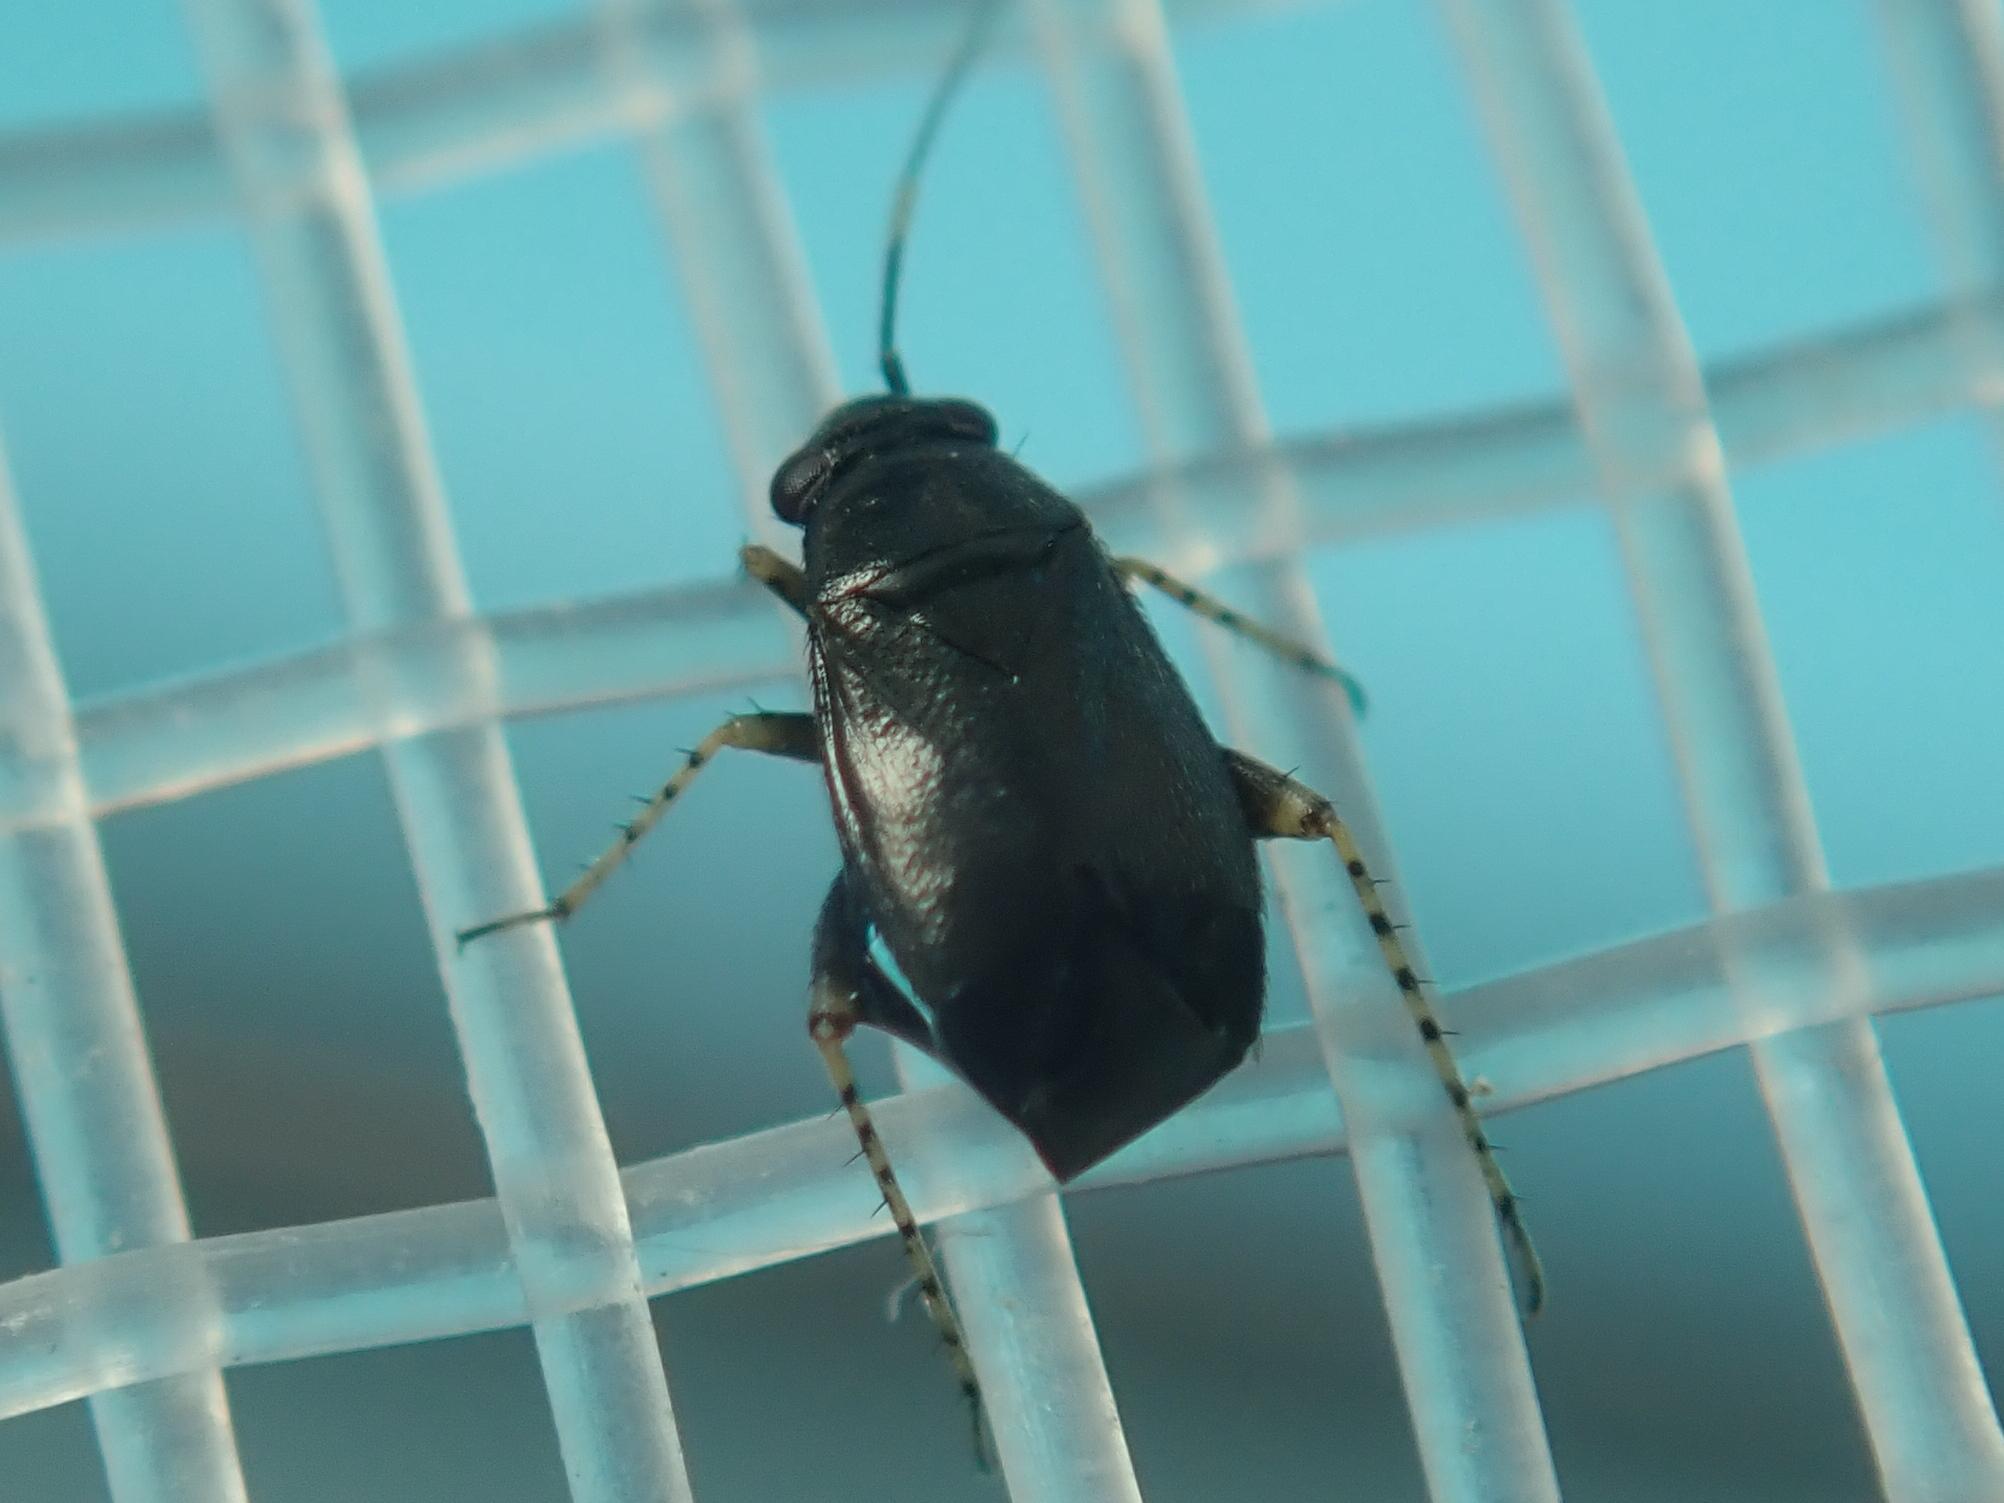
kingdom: Animalia
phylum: Arthropoda
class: Insecta
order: Hemiptera
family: Miridae
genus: Chlamydatus
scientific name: Chlamydatus pullus
